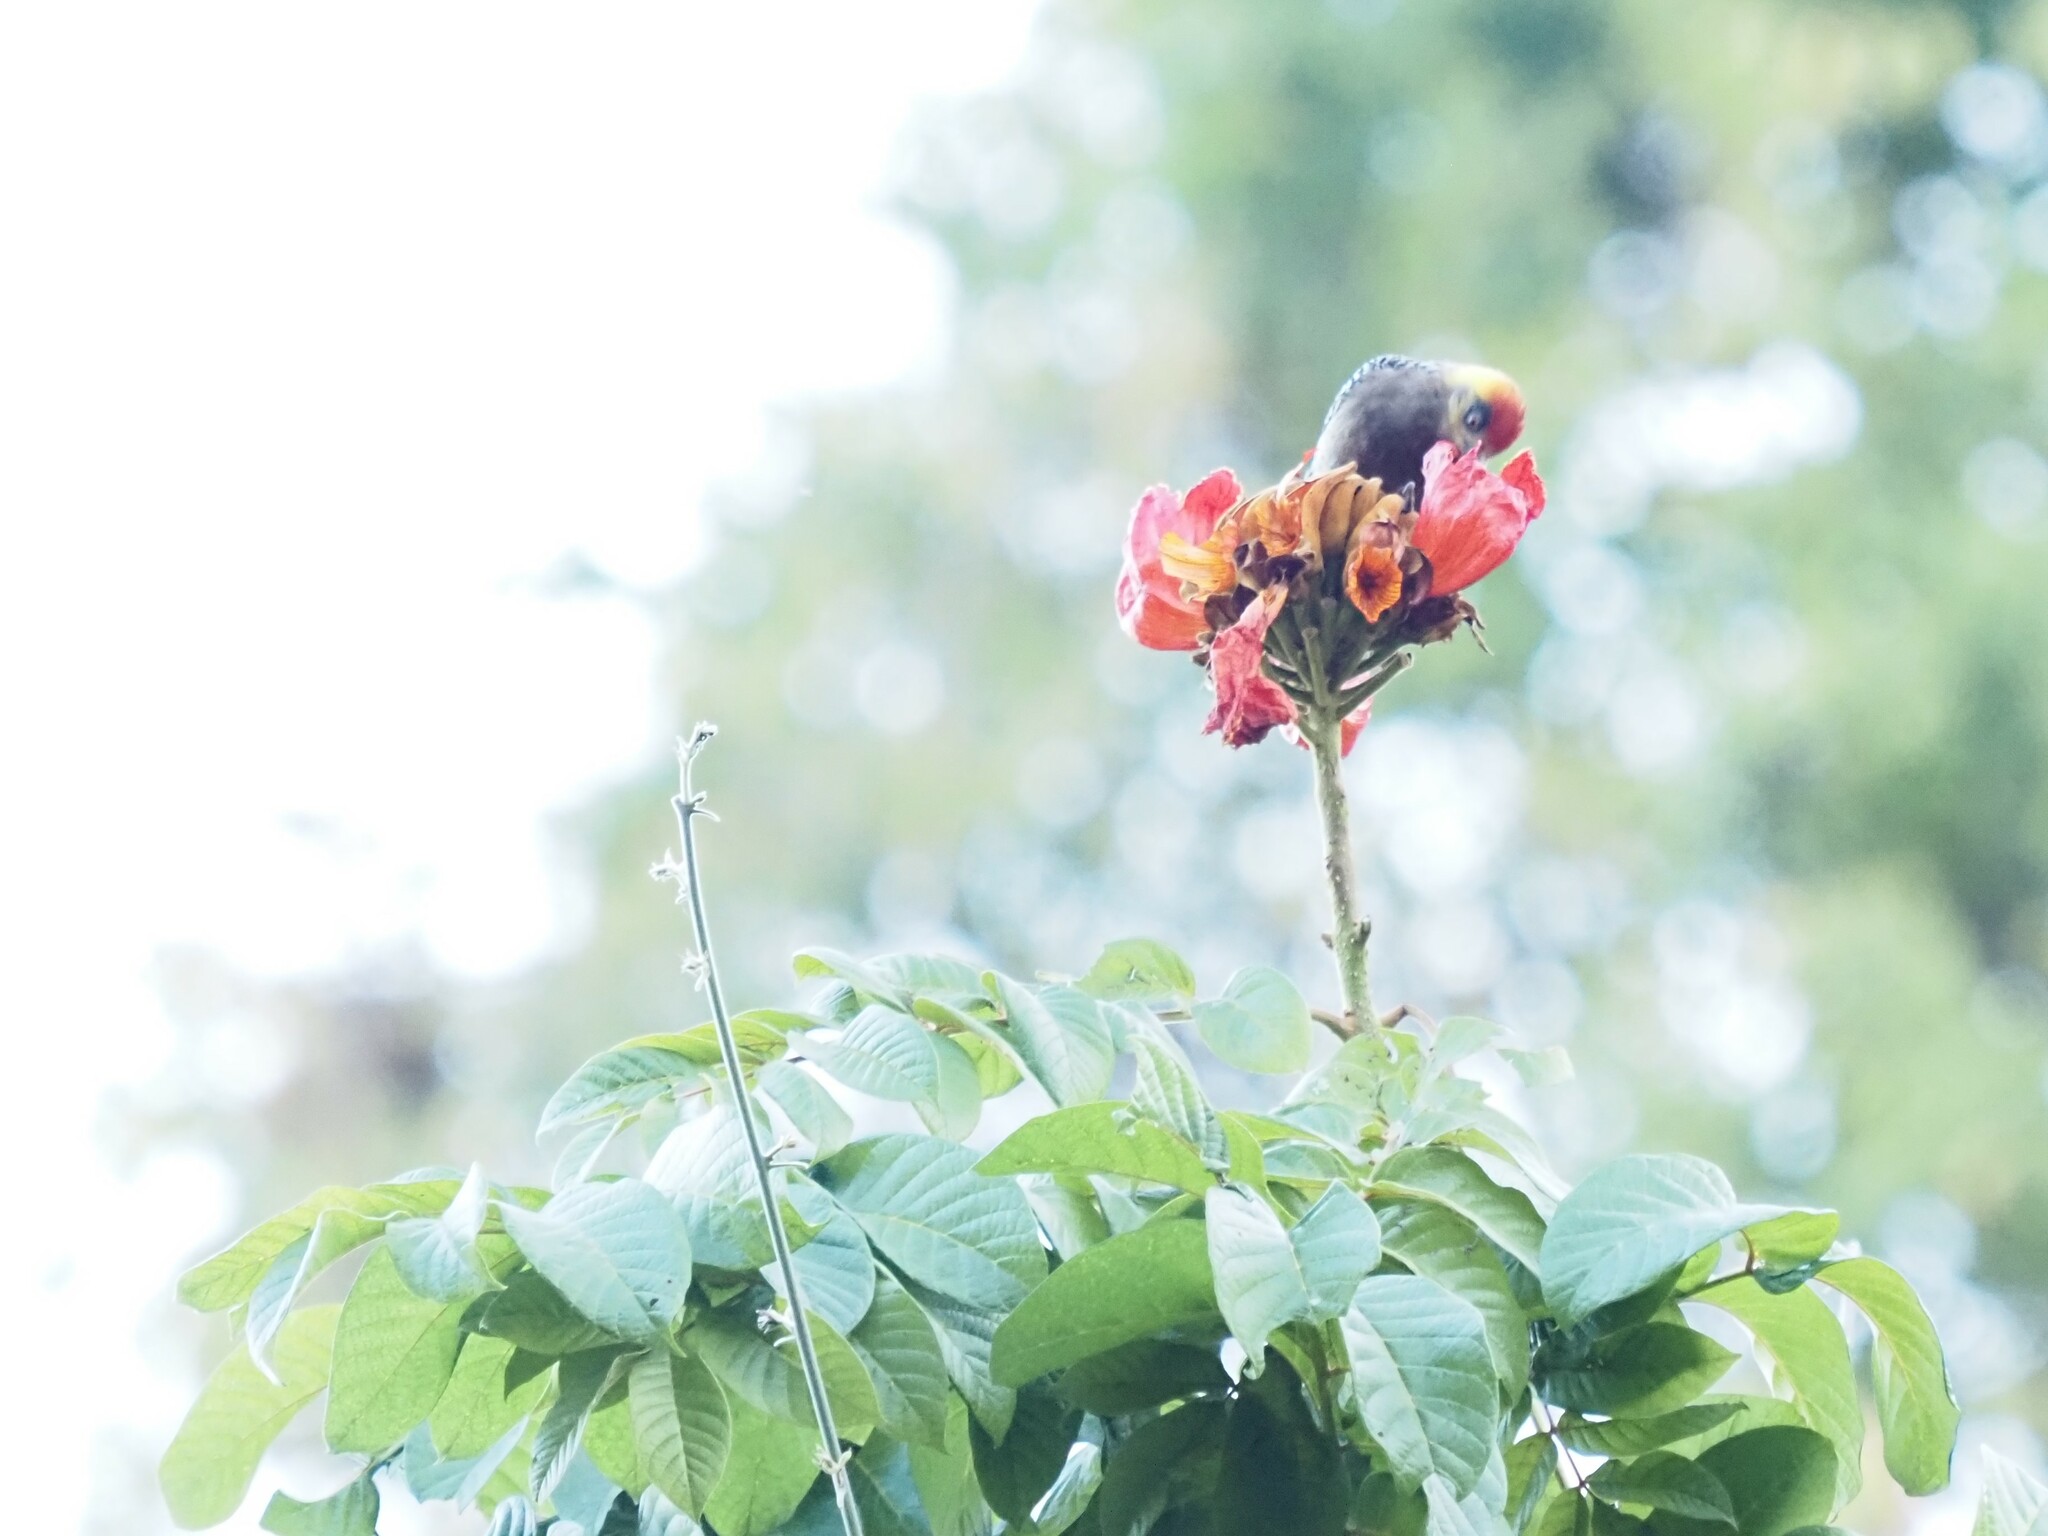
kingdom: Animalia
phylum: Chordata
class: Aves
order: Piciformes
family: Picidae
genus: Melanerpes
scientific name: Melanerpes chrysogenys
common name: Golden-cheeked woodpecker
